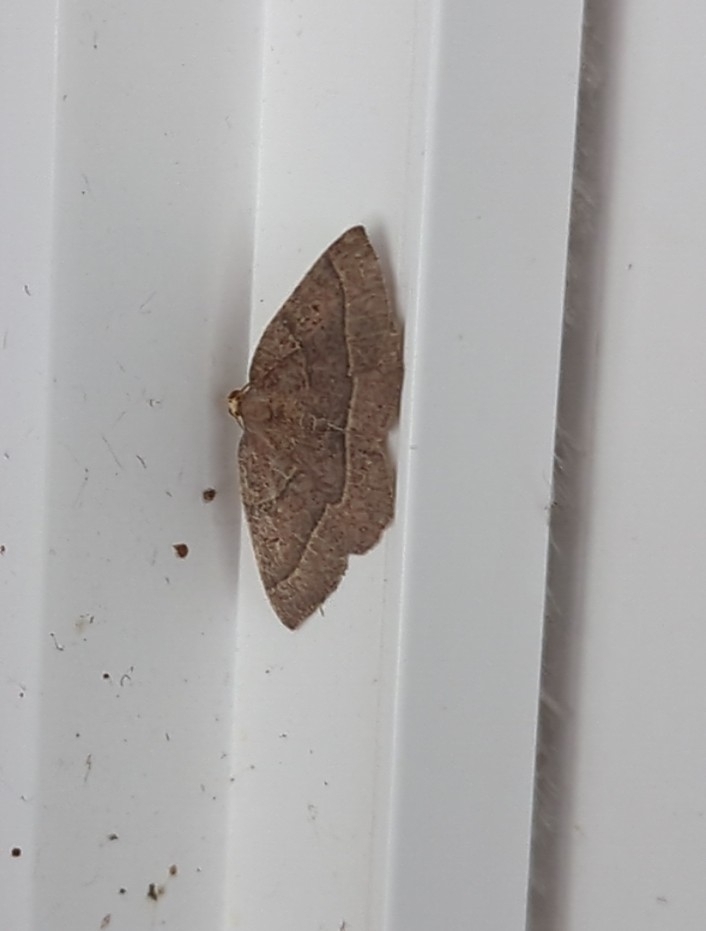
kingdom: Animalia
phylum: Arthropoda
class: Insecta
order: Lepidoptera
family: Geometridae
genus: Episemasia
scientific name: Episemasia cervinaria
